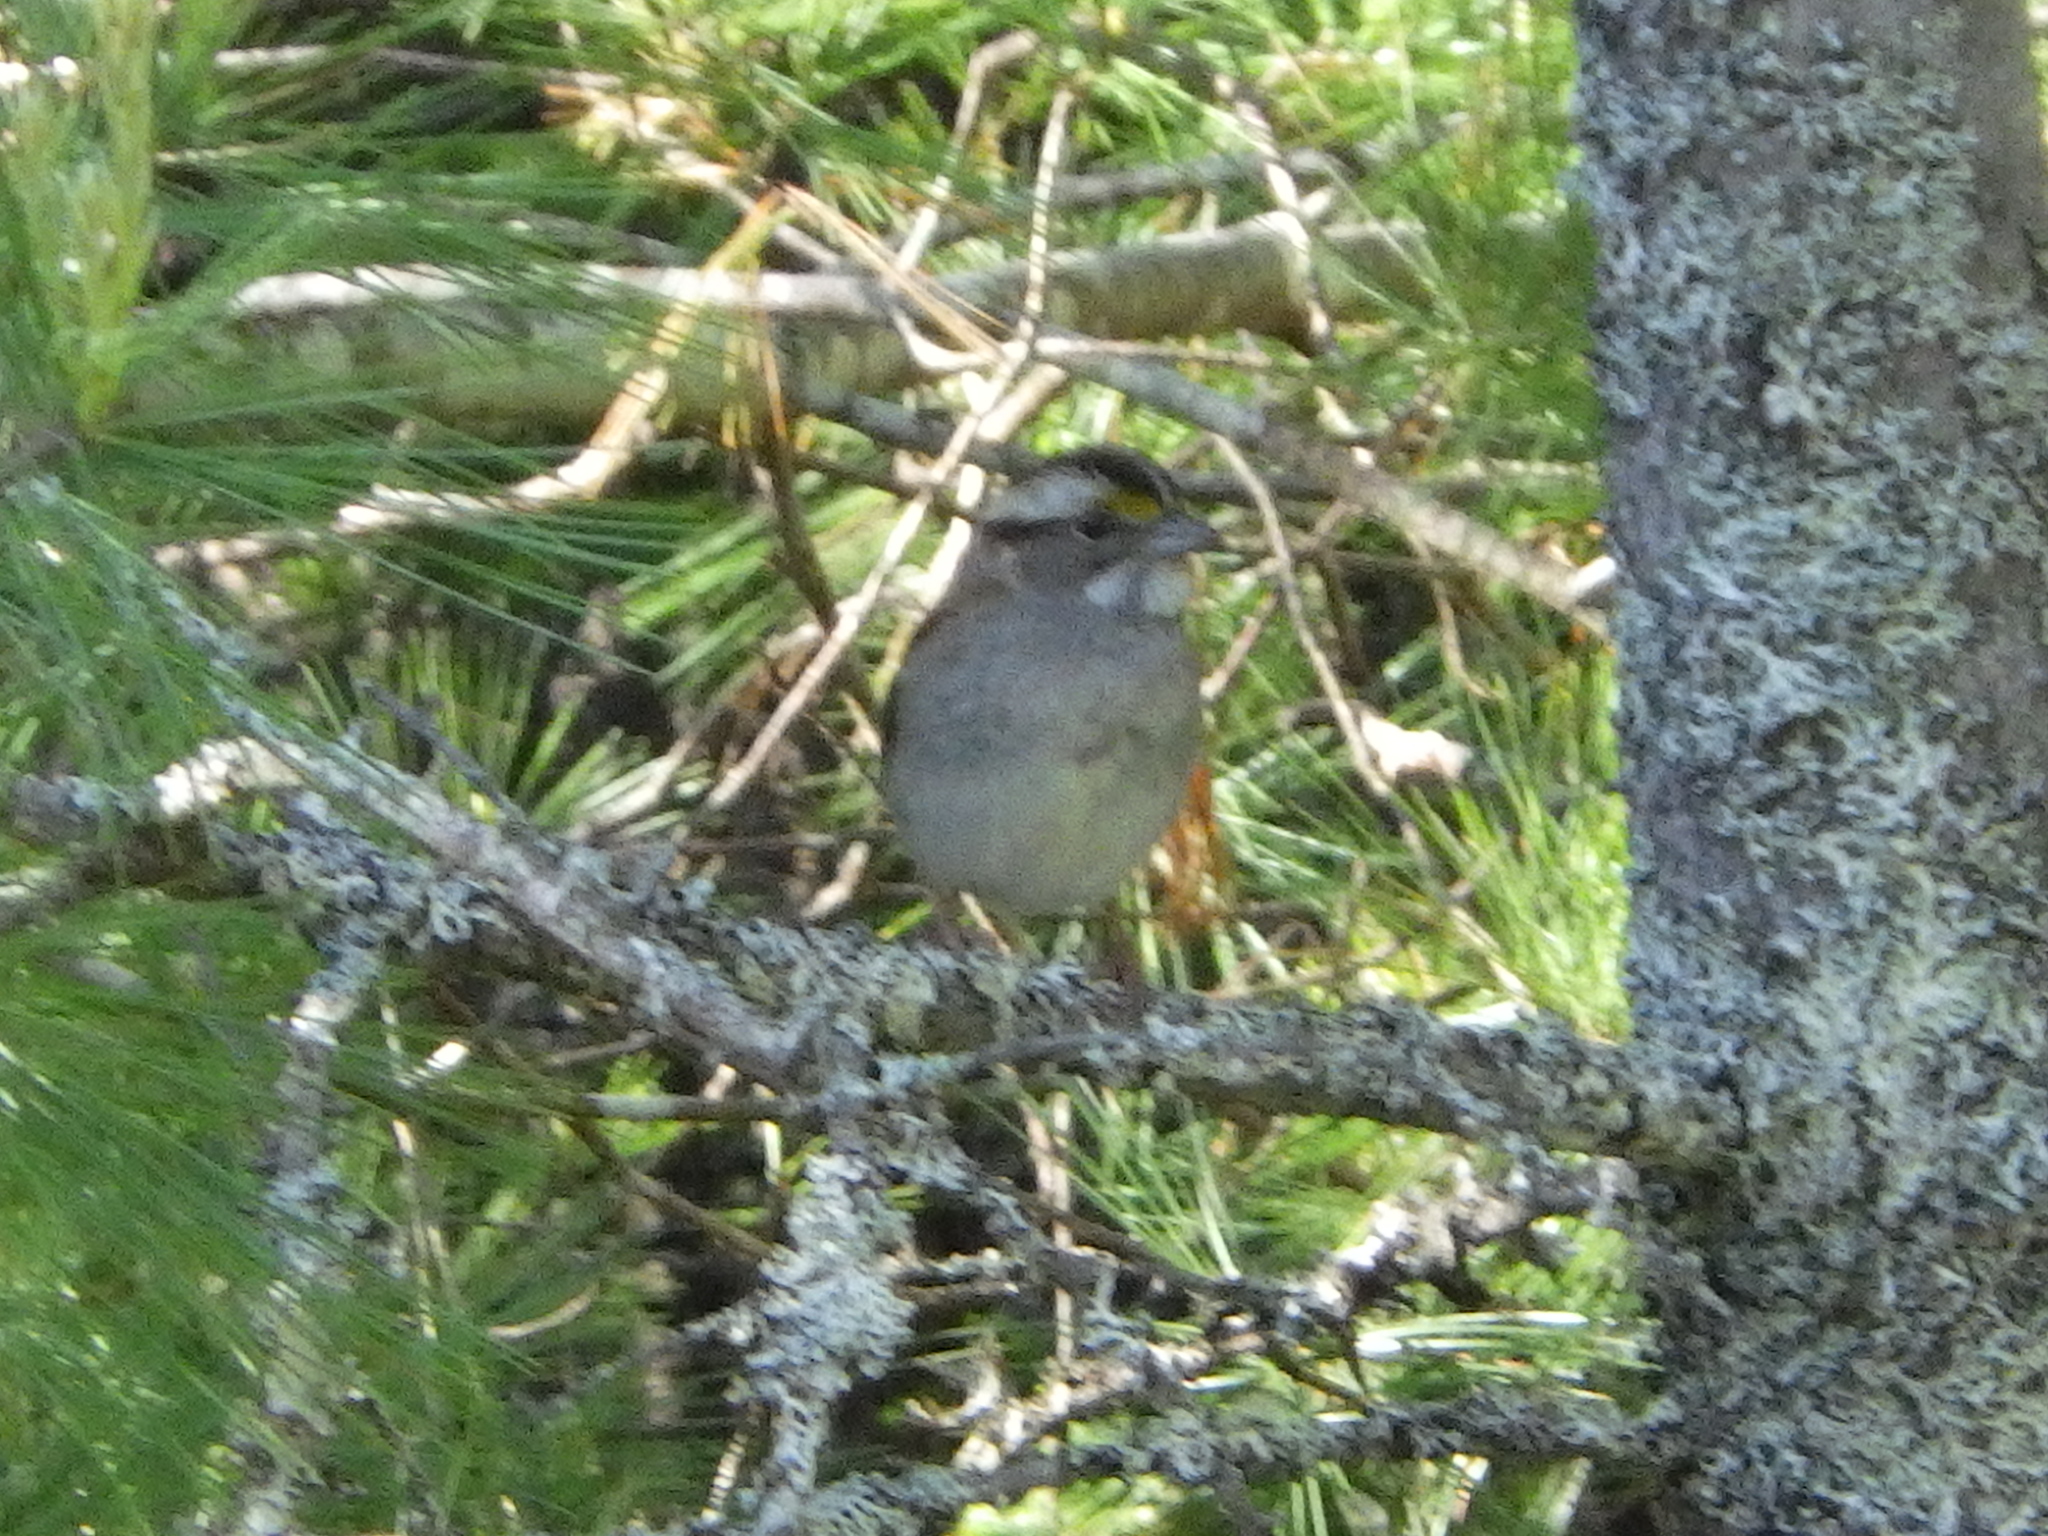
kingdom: Animalia
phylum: Chordata
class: Aves
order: Passeriformes
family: Passerellidae
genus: Zonotrichia
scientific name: Zonotrichia albicollis
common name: White-throated sparrow
